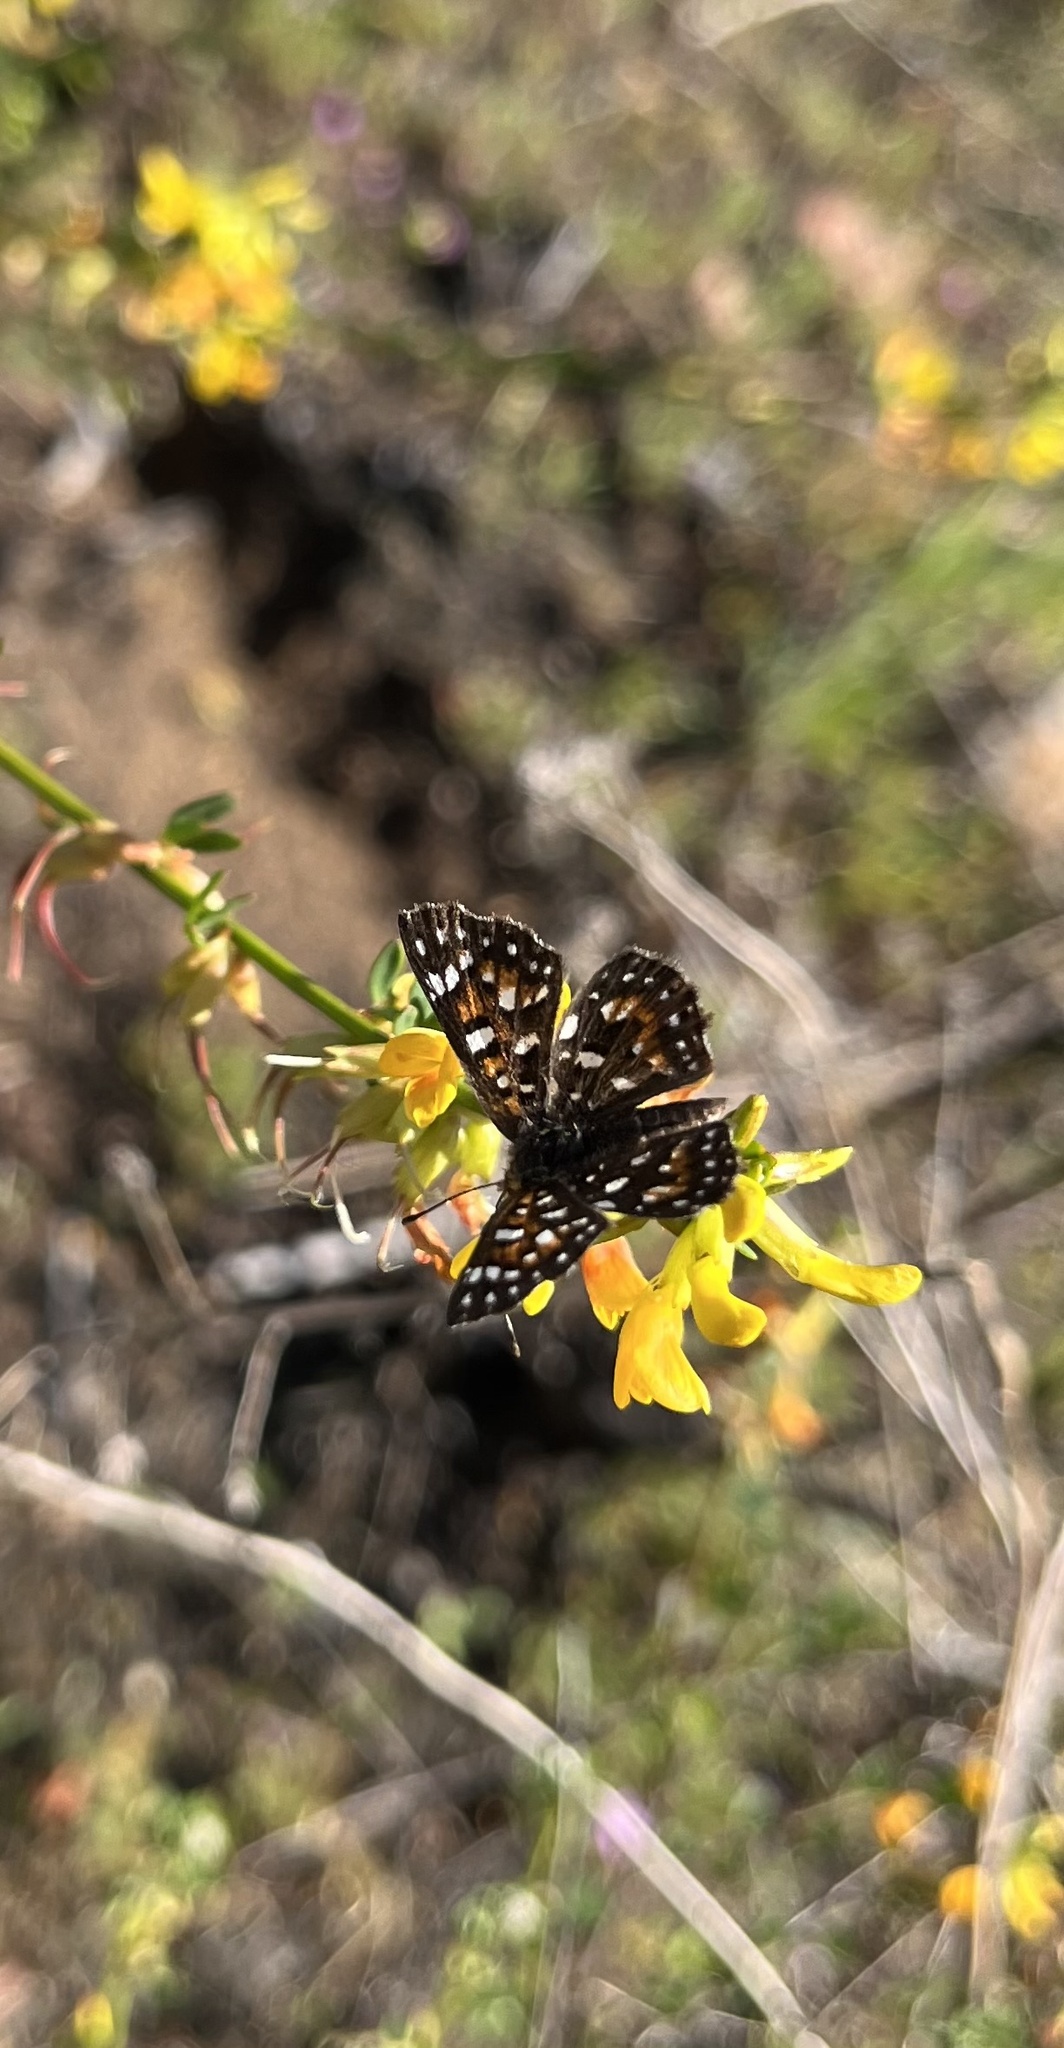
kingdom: Animalia
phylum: Arthropoda
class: Insecta
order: Lepidoptera
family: Riodinidae
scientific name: Riodinidae
